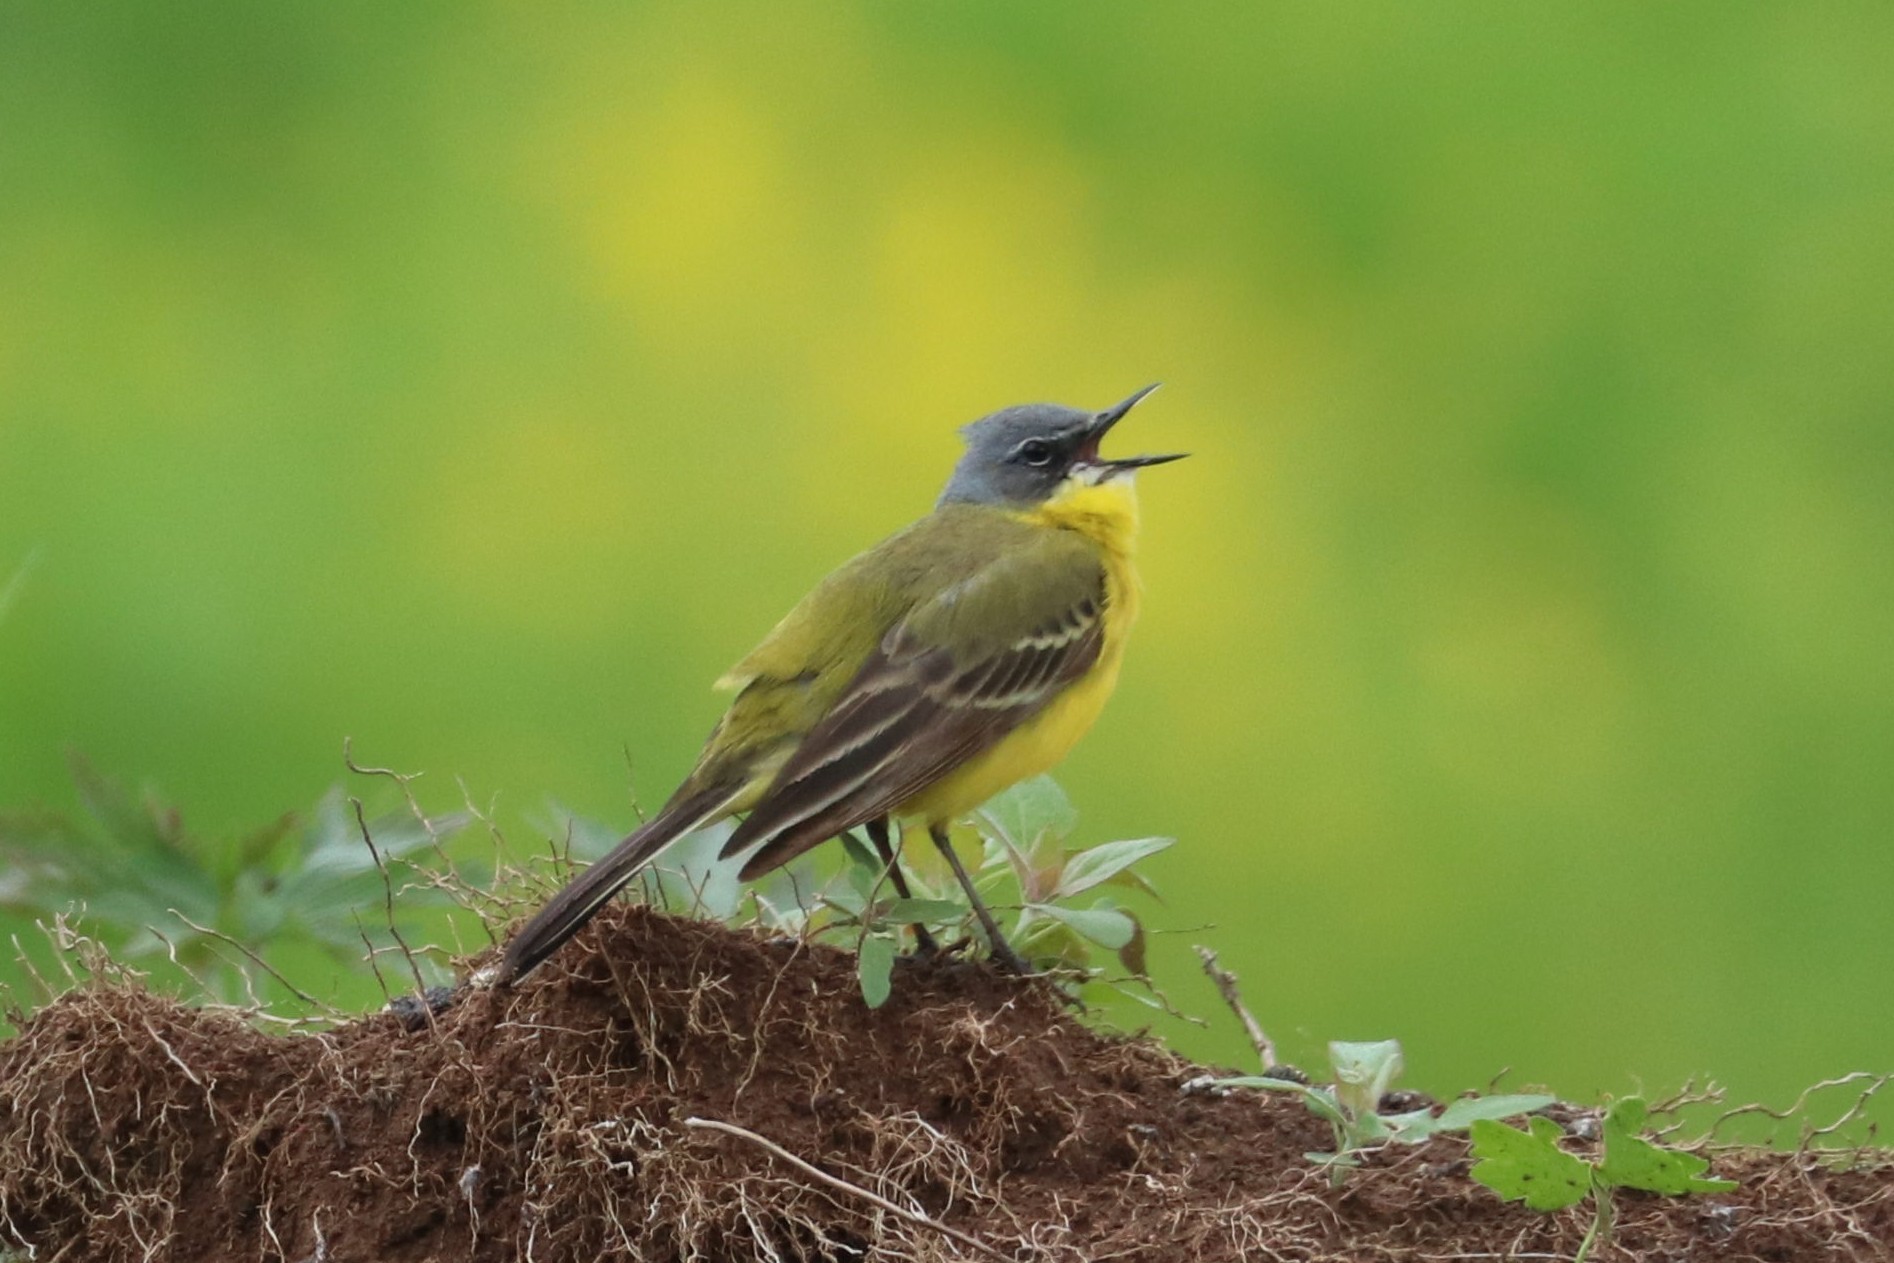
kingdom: Animalia
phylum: Chordata
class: Aves
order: Passeriformes
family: Motacillidae
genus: Motacilla
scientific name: Motacilla flava
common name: Western yellow wagtail
